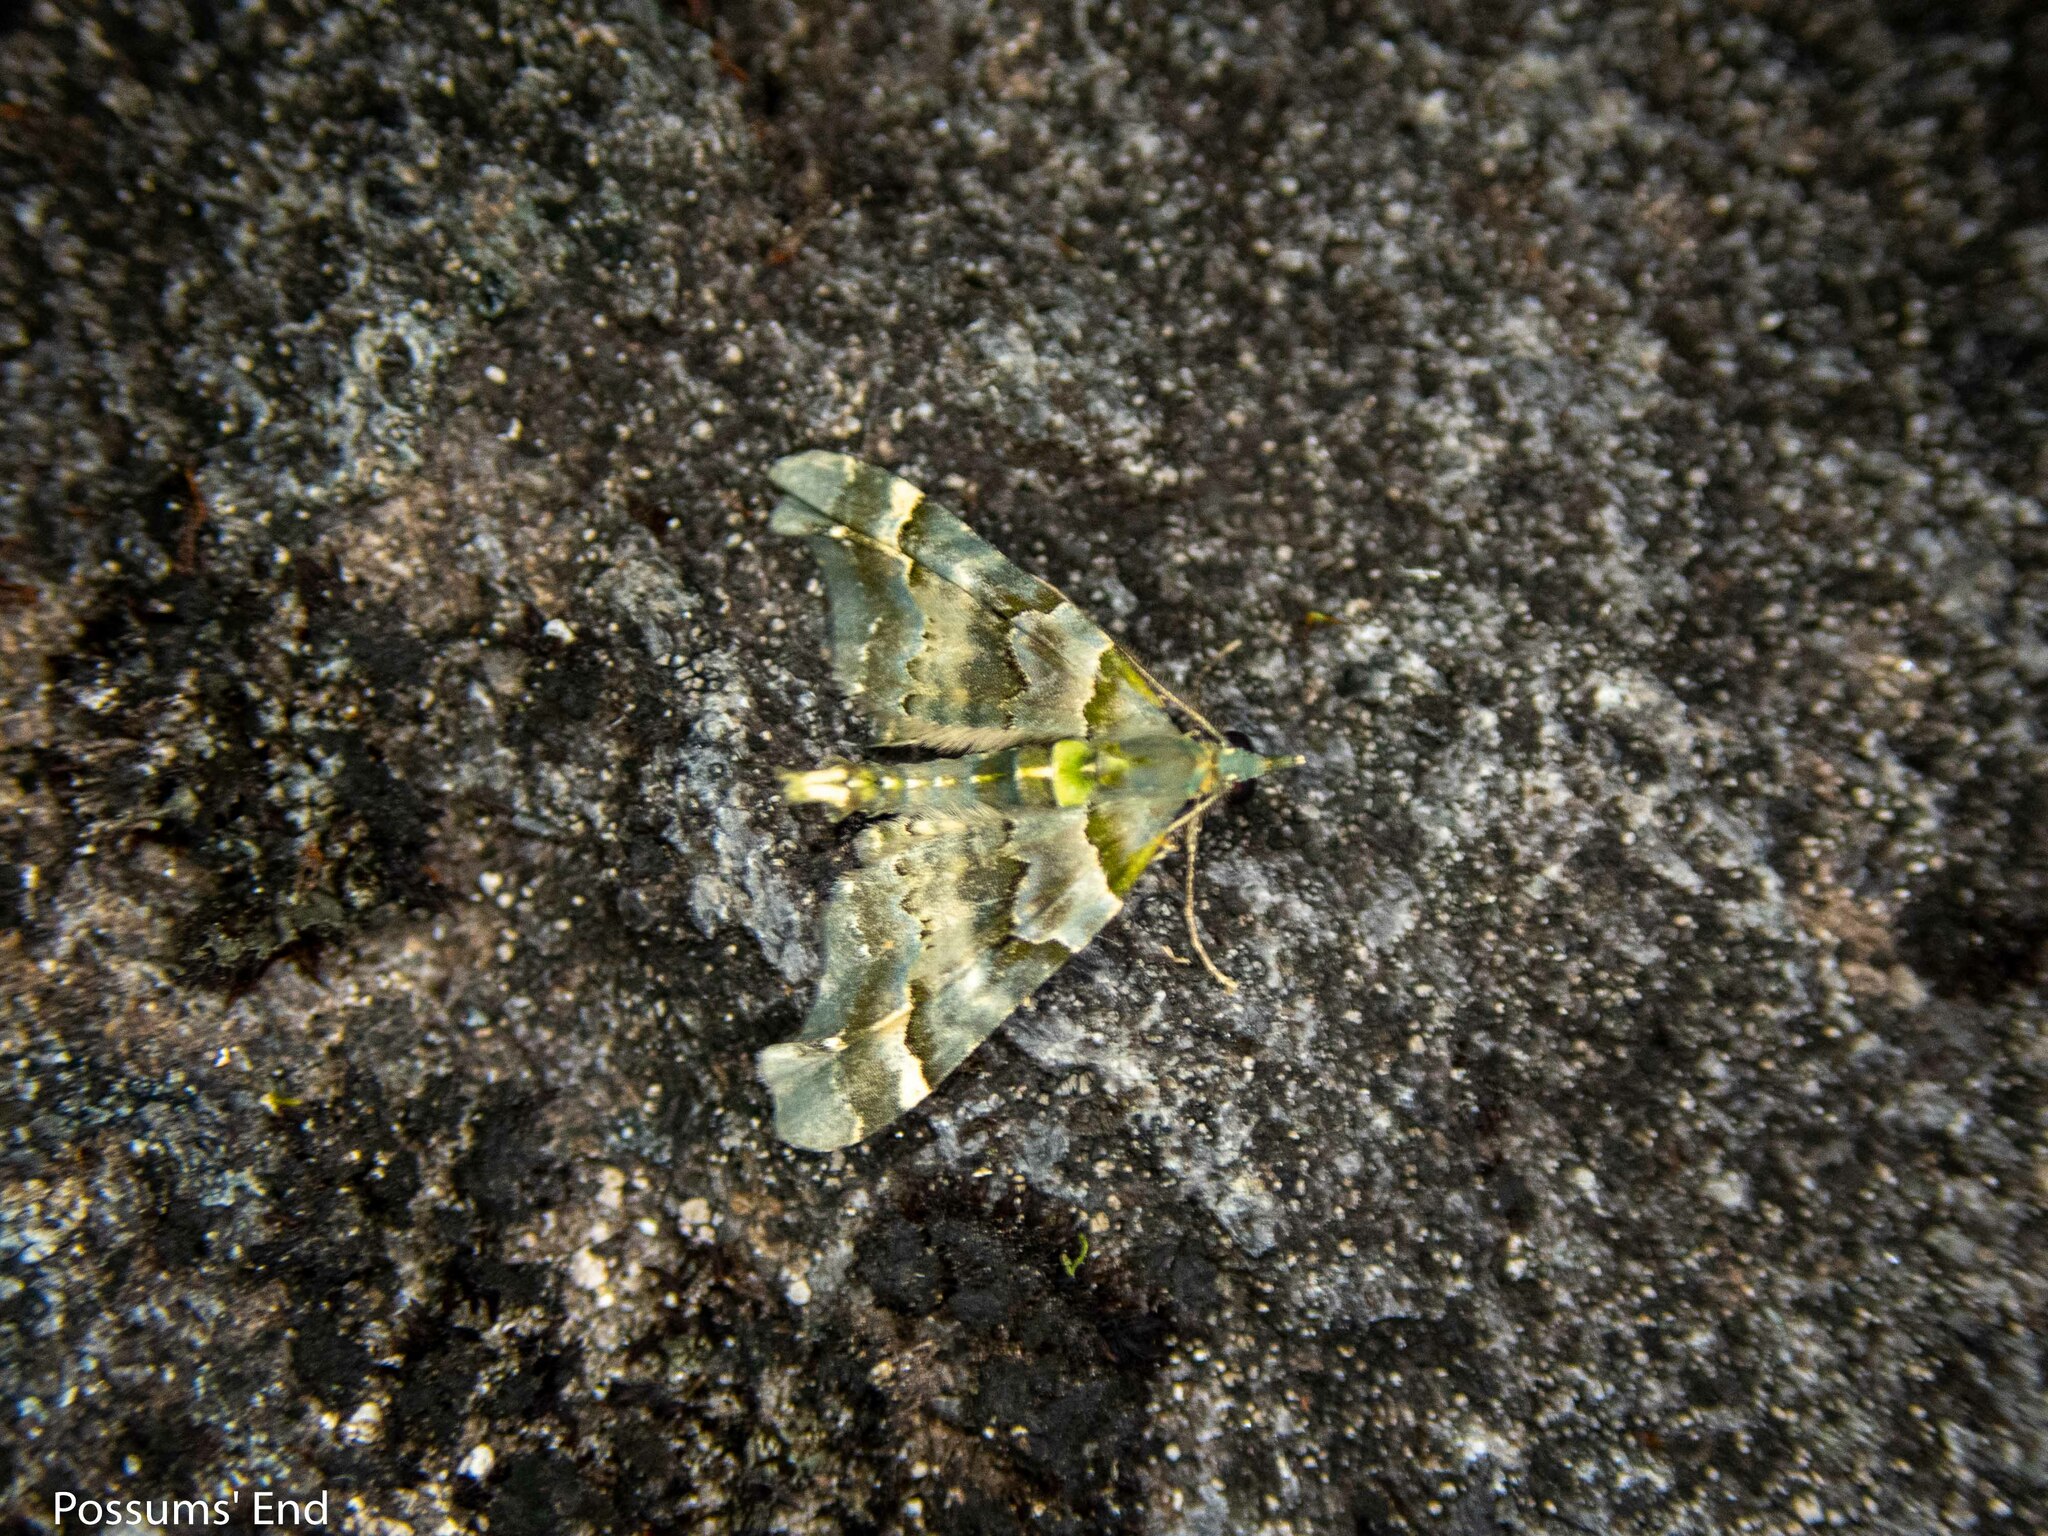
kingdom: Animalia
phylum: Arthropoda
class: Insecta
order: Lepidoptera
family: Geometridae
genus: Elvia
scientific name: Elvia glaucata
